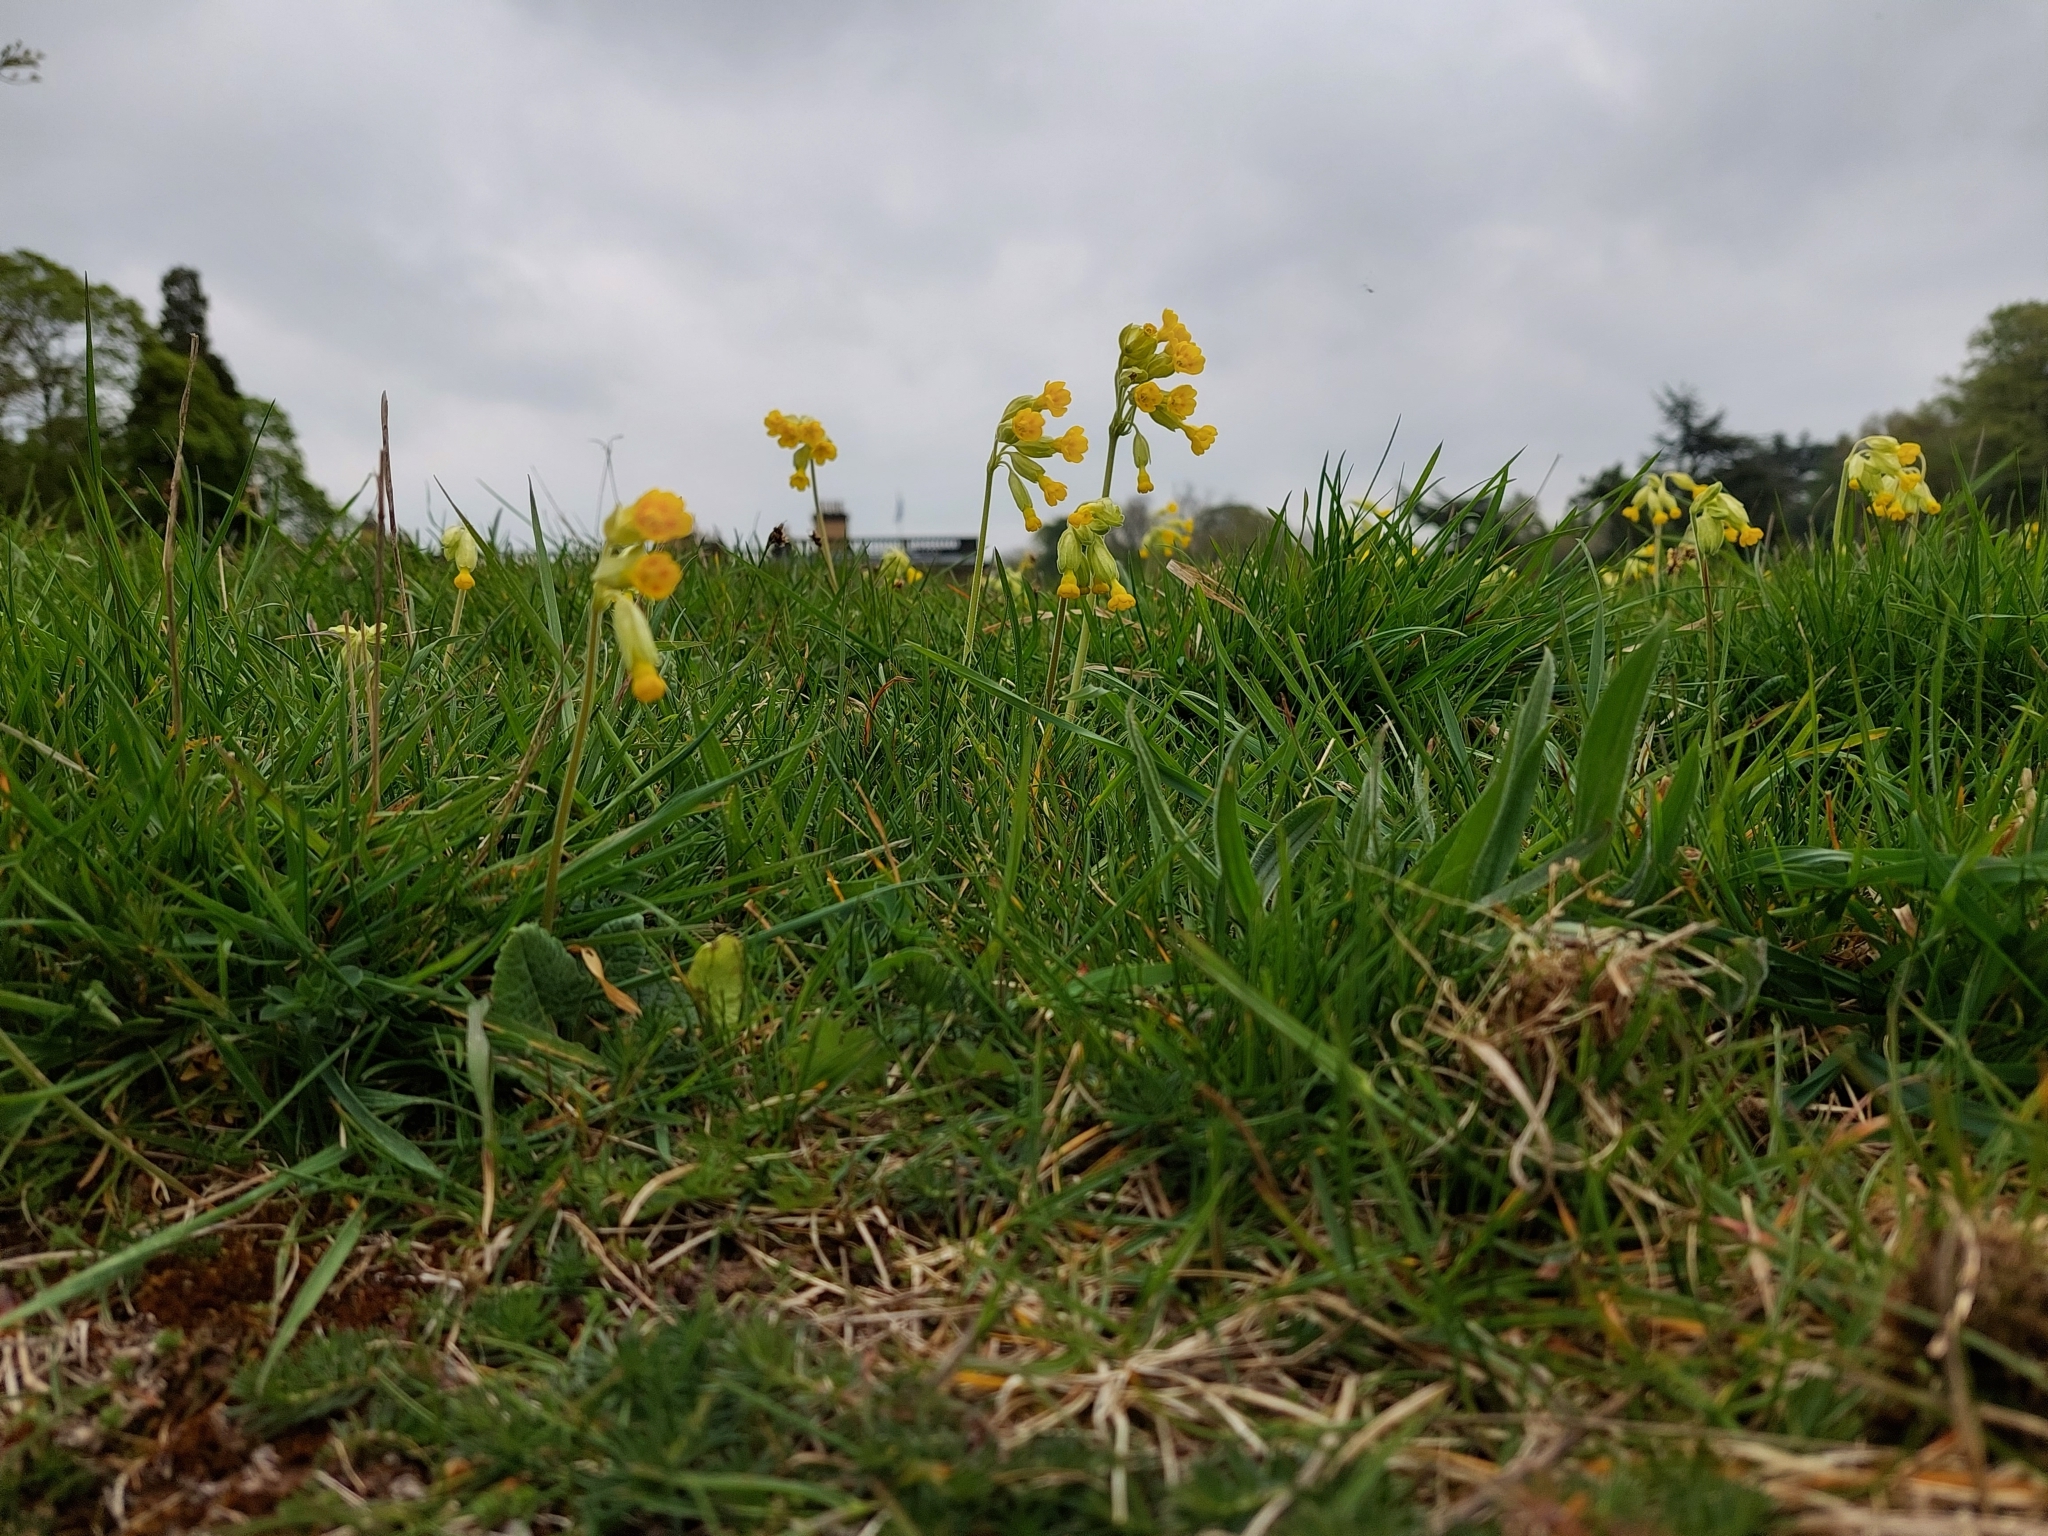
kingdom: Plantae
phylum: Tracheophyta
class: Magnoliopsida
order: Ericales
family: Primulaceae
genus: Primula
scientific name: Primula veris
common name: Cowslip
